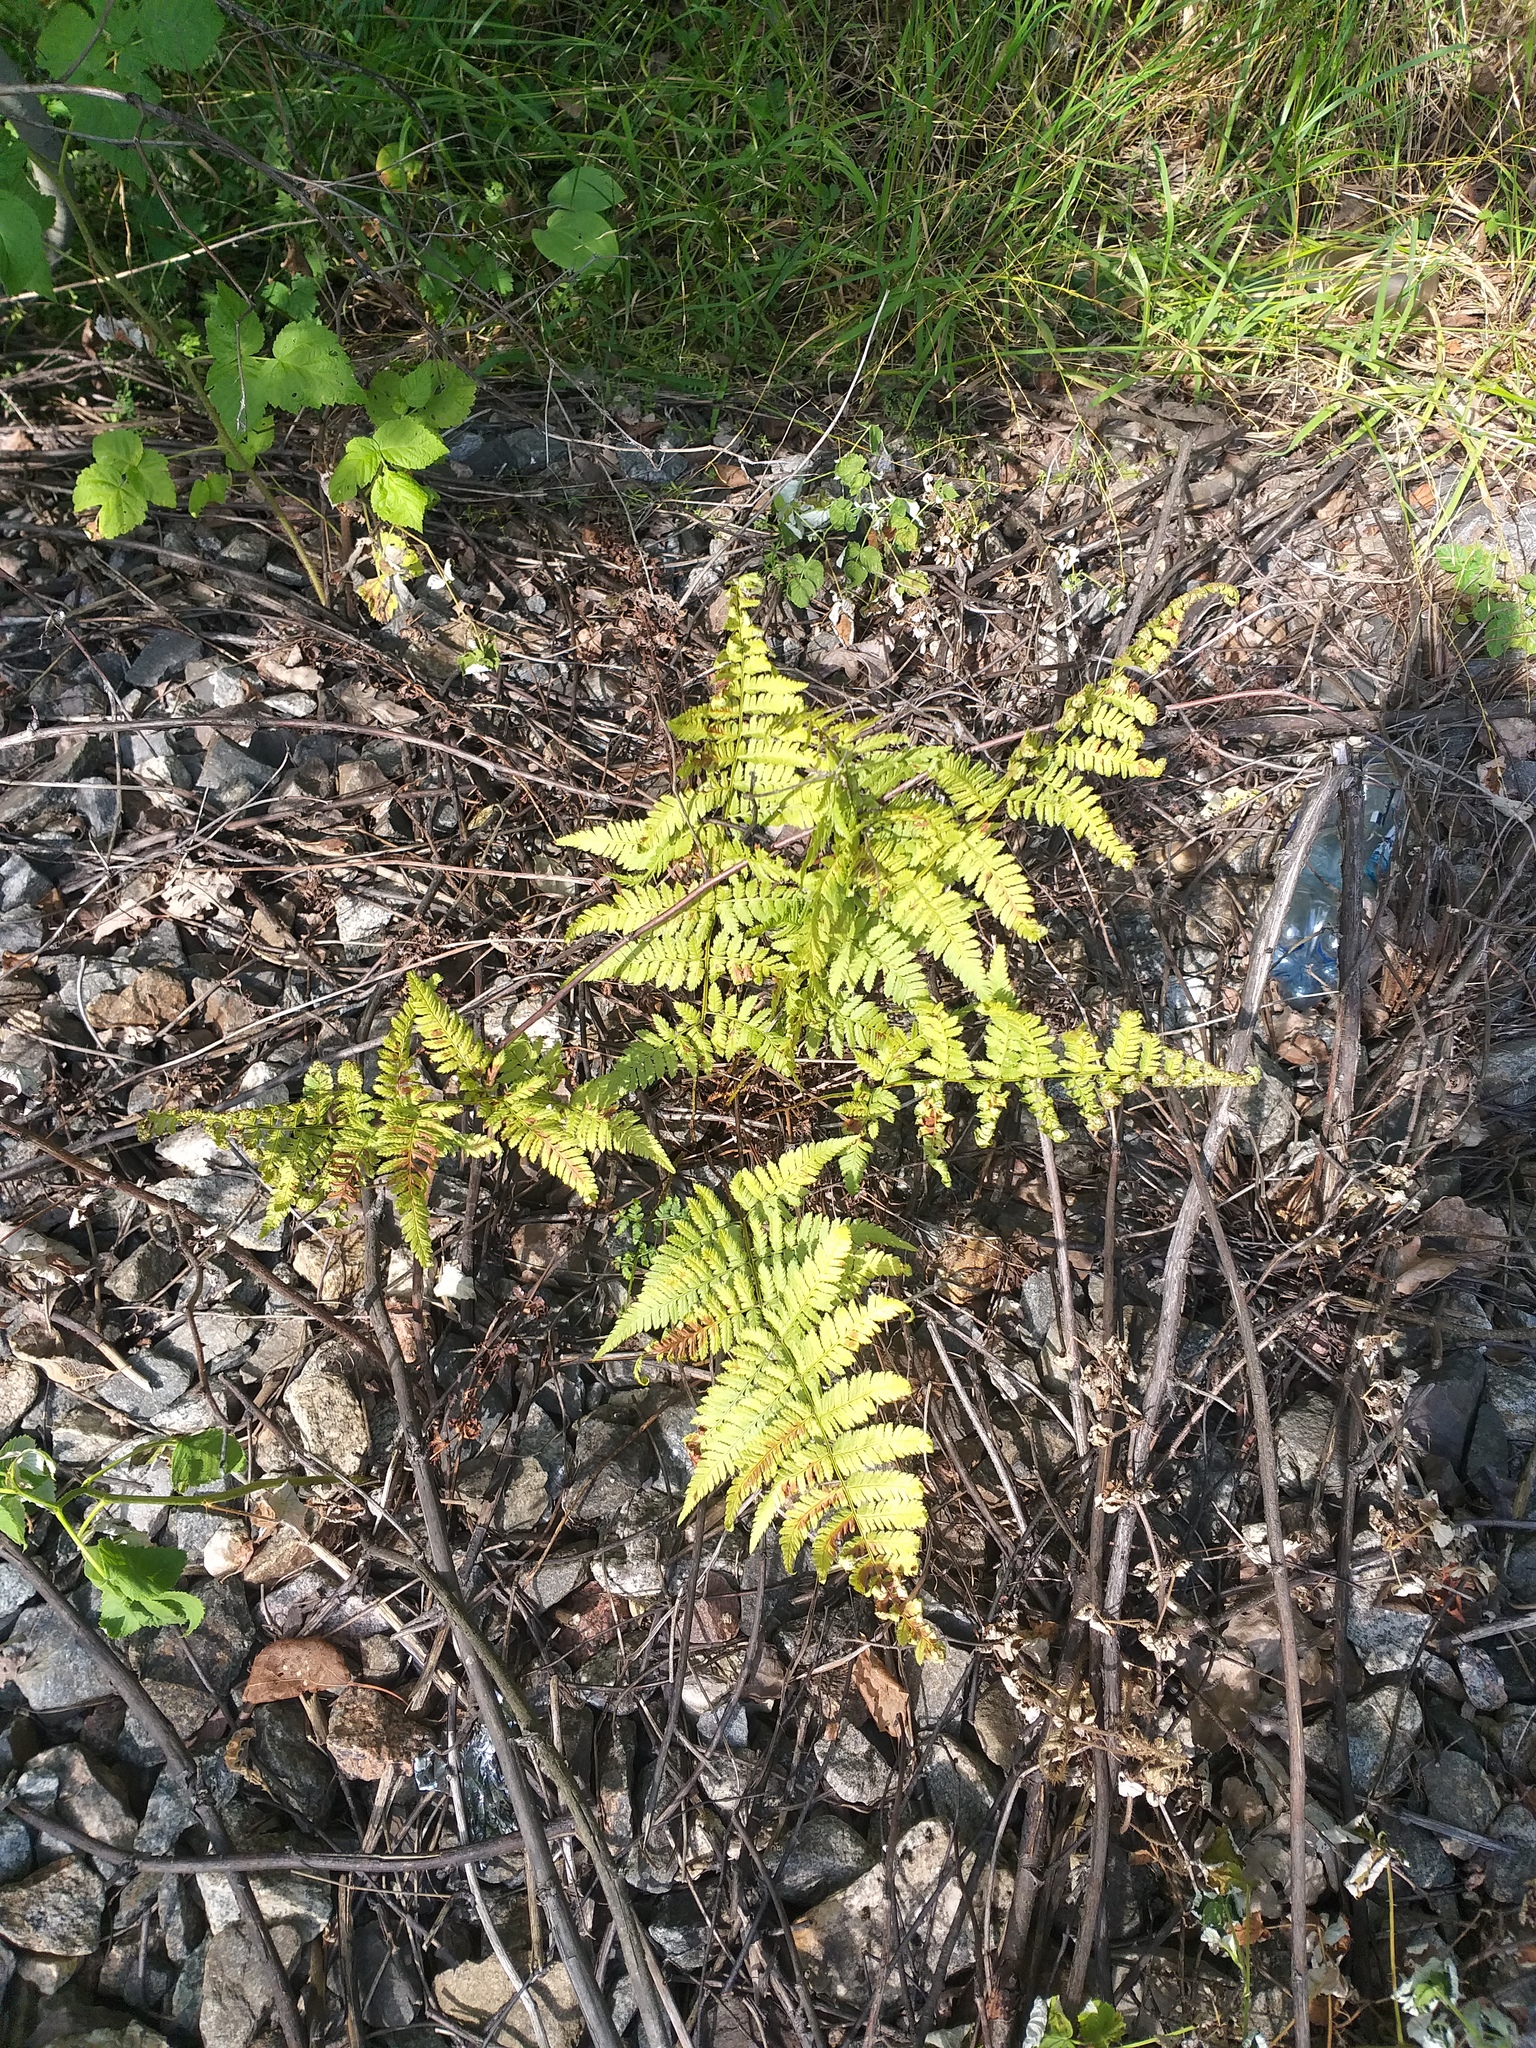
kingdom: Plantae
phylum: Tracheophyta
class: Polypodiopsida
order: Polypodiales
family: Dryopteridaceae
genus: Dryopteris
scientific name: Dryopteris carthusiana
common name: Narrow buckler-fern
